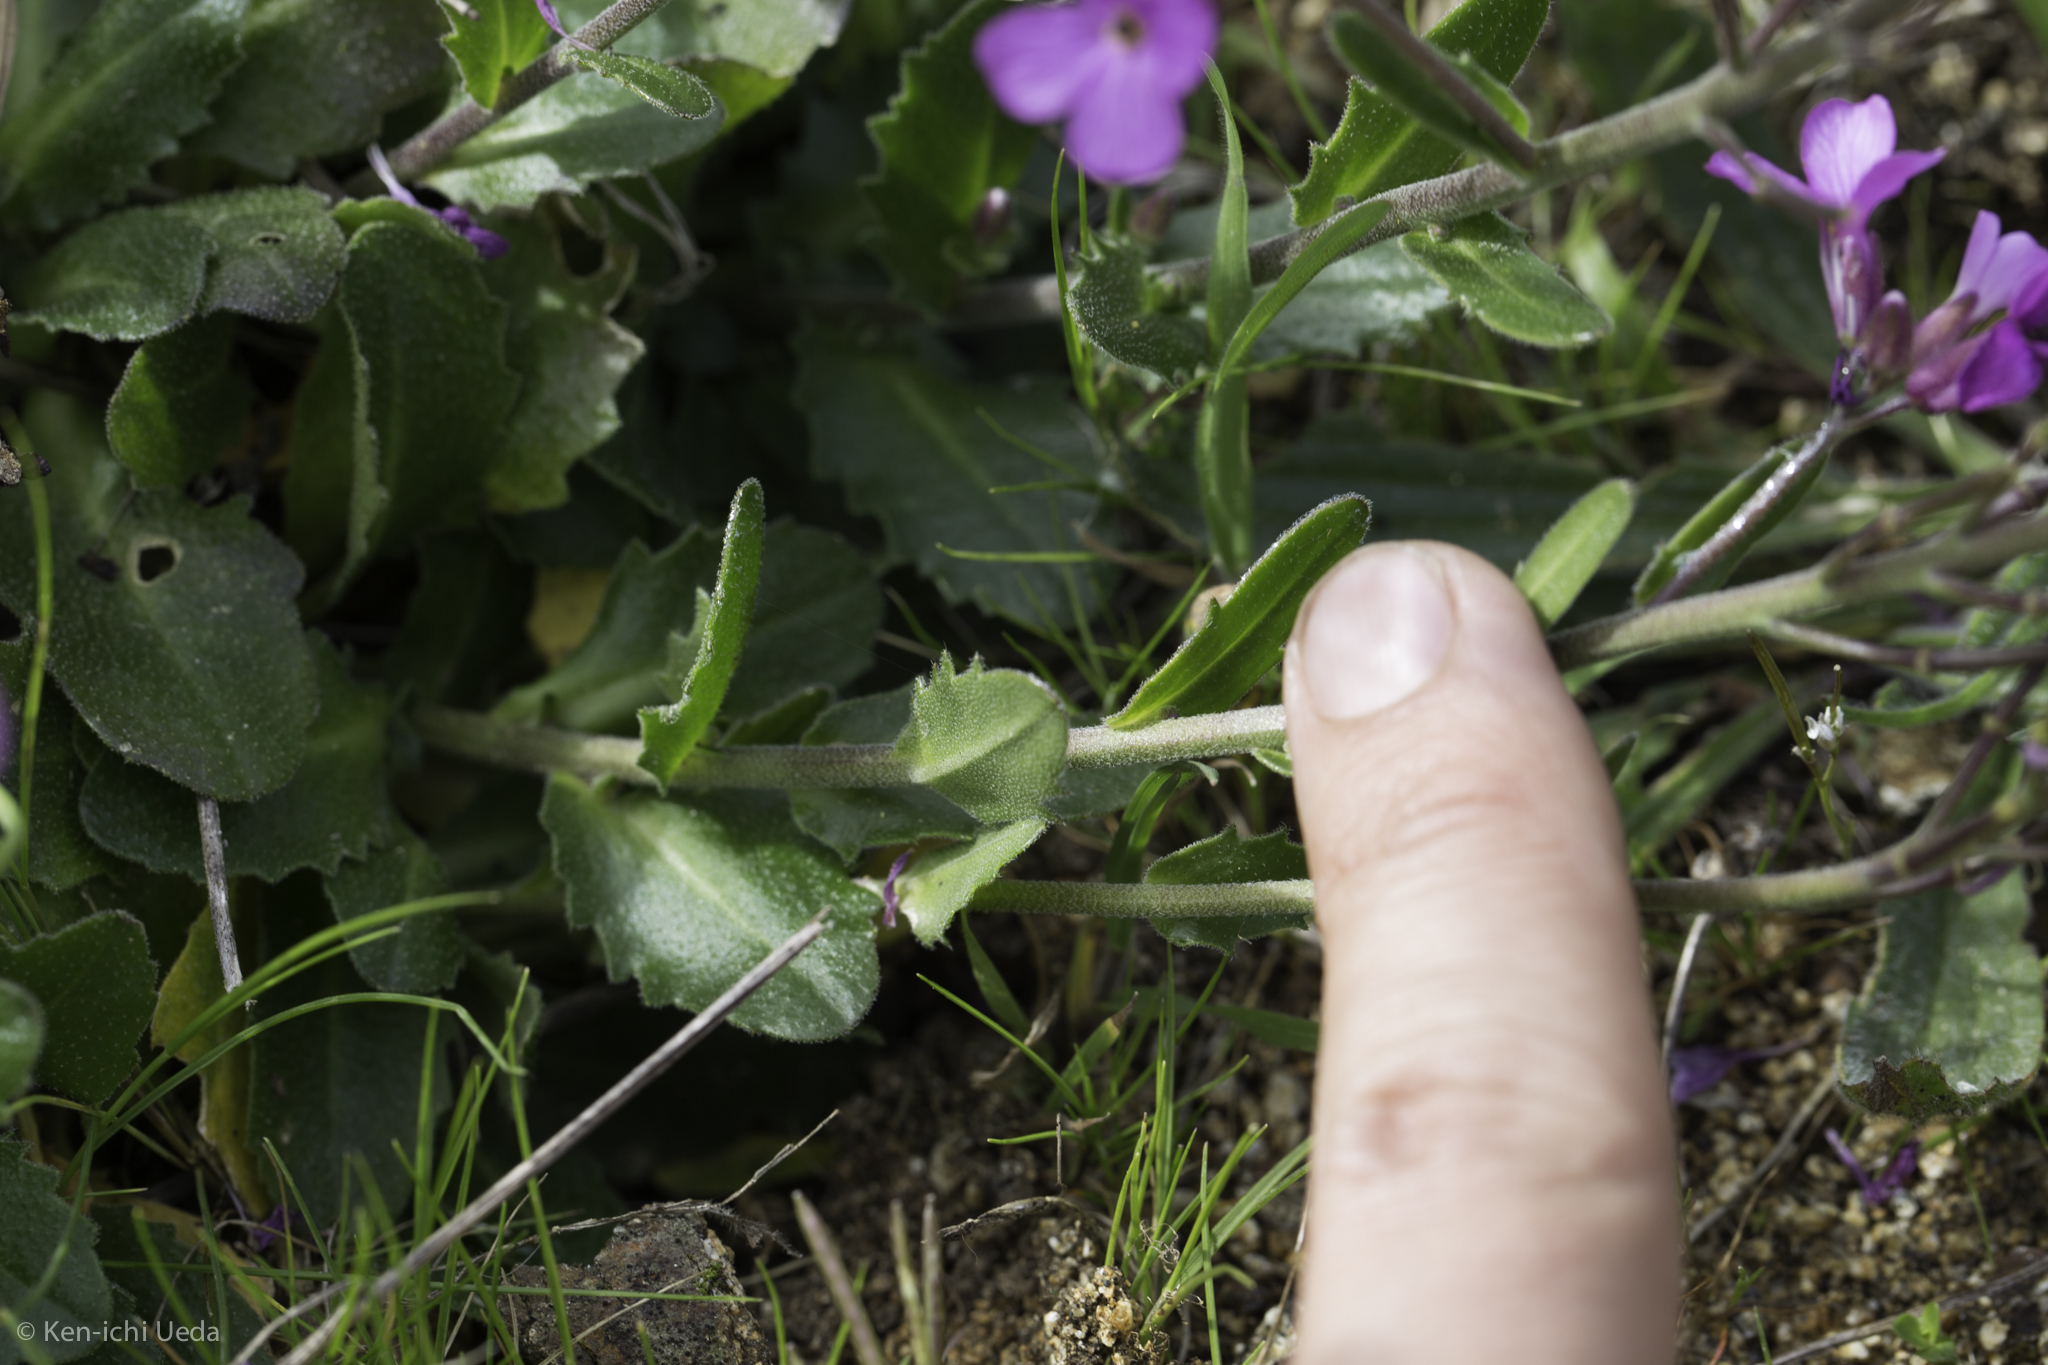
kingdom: Plantae
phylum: Tracheophyta
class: Magnoliopsida
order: Brassicales
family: Brassicaceae
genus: Arabis
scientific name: Arabis blepharophylla
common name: Rose rockcress
